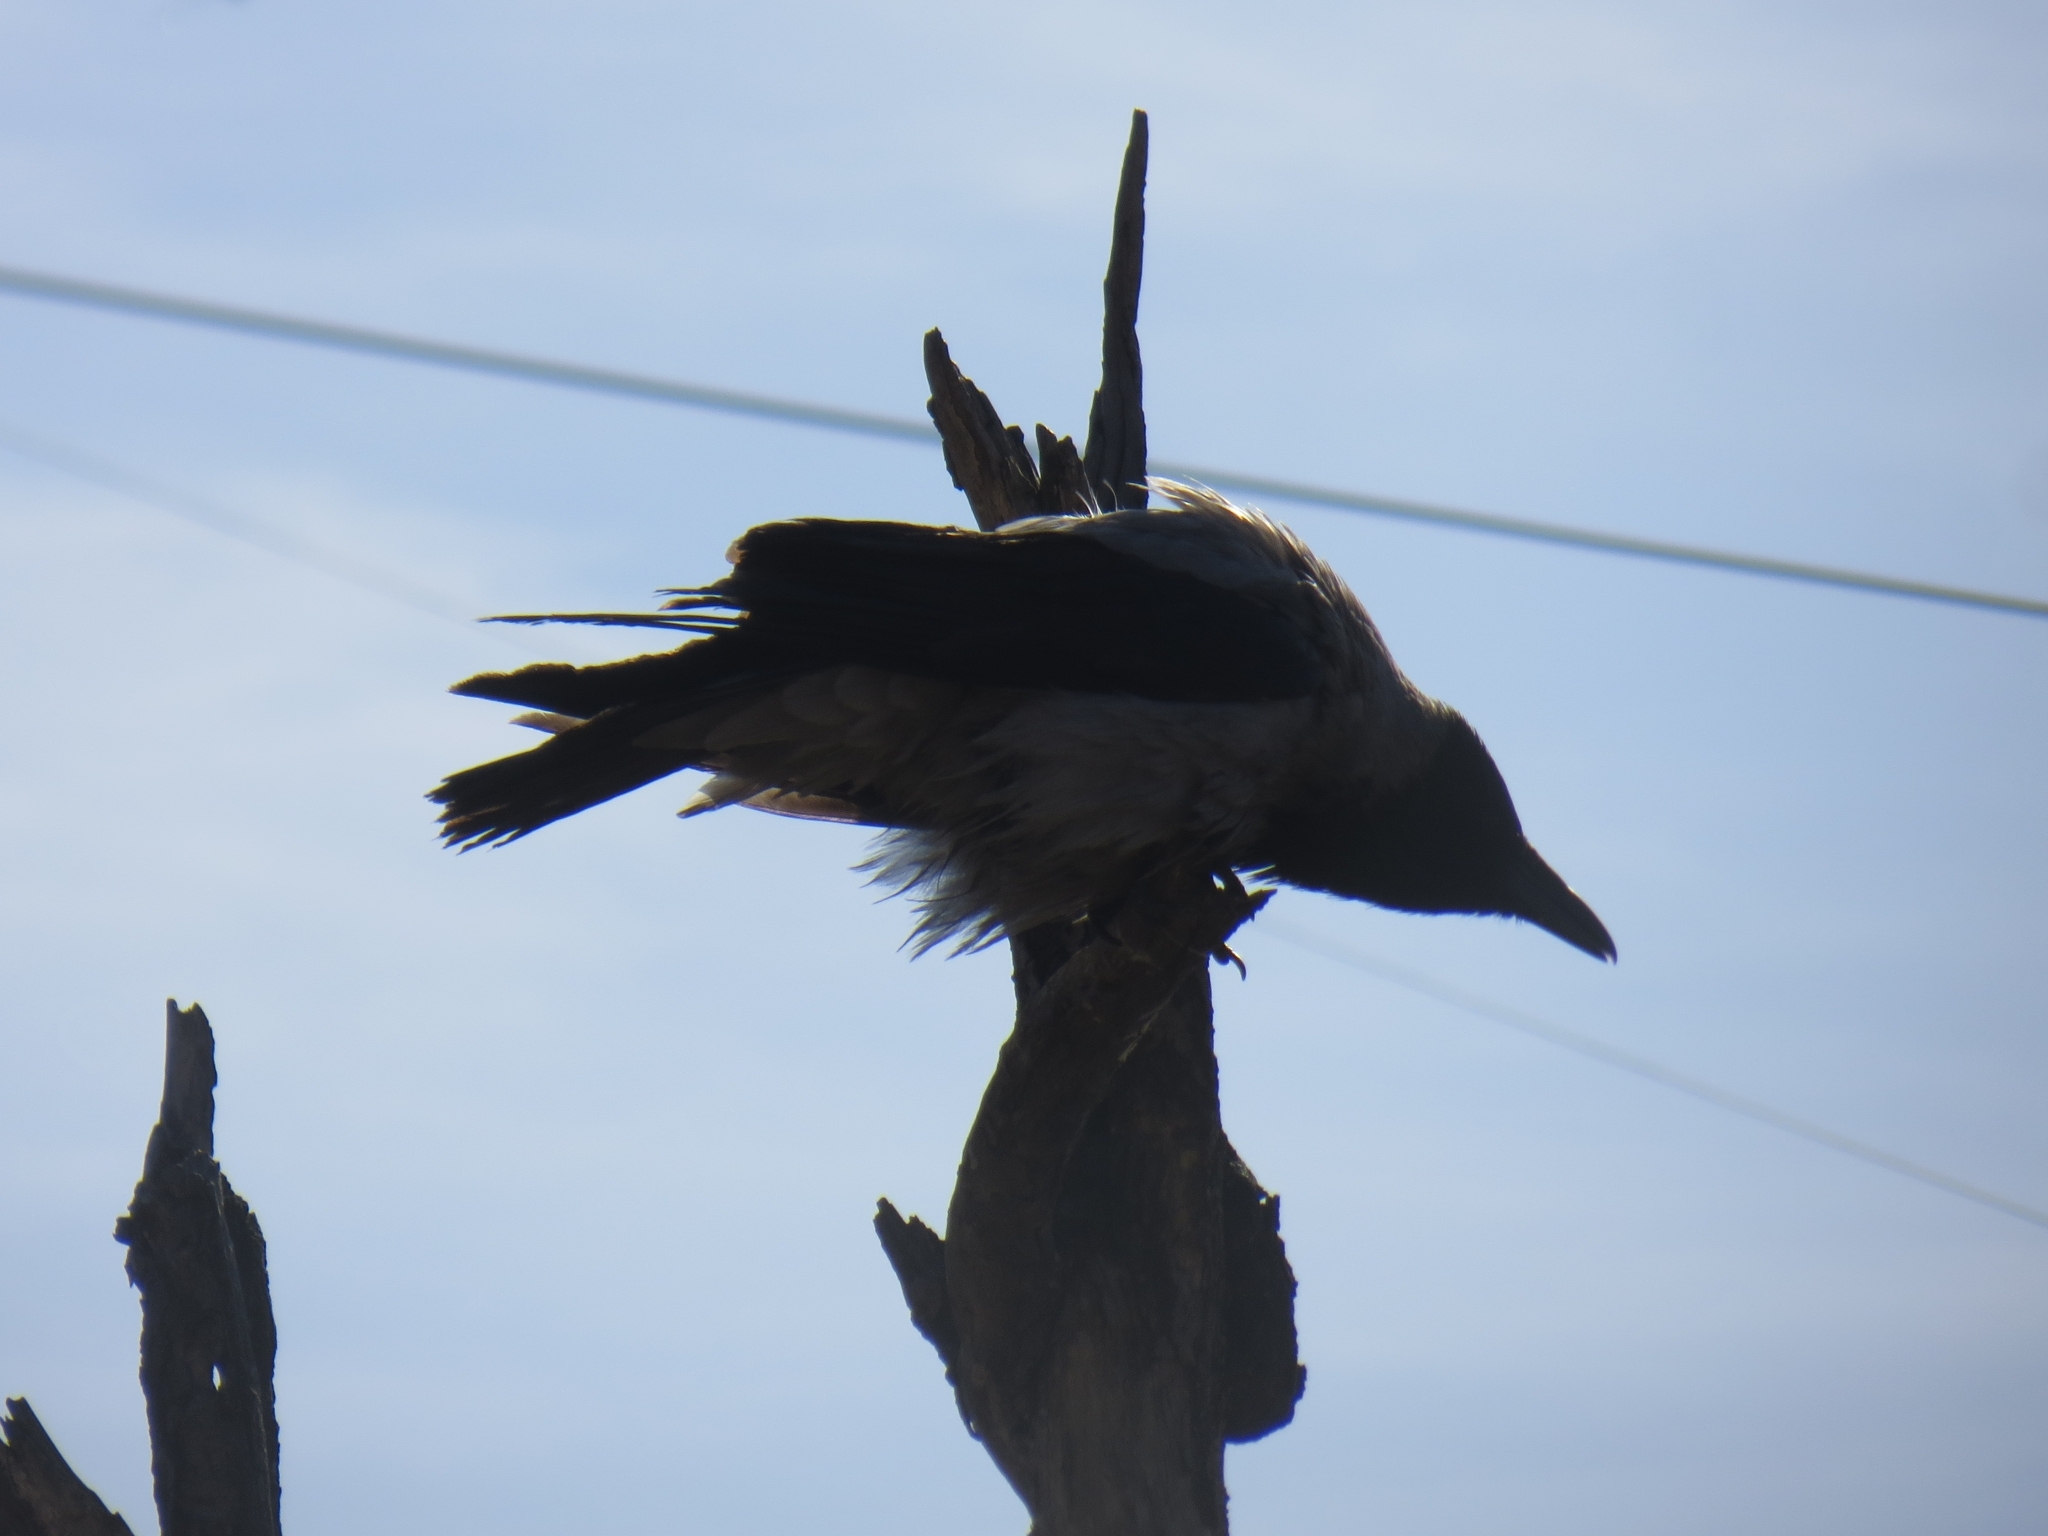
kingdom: Animalia
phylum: Chordata
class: Aves
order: Passeriformes
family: Corvidae
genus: Corvus
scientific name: Corvus cornix
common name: Hooded crow
